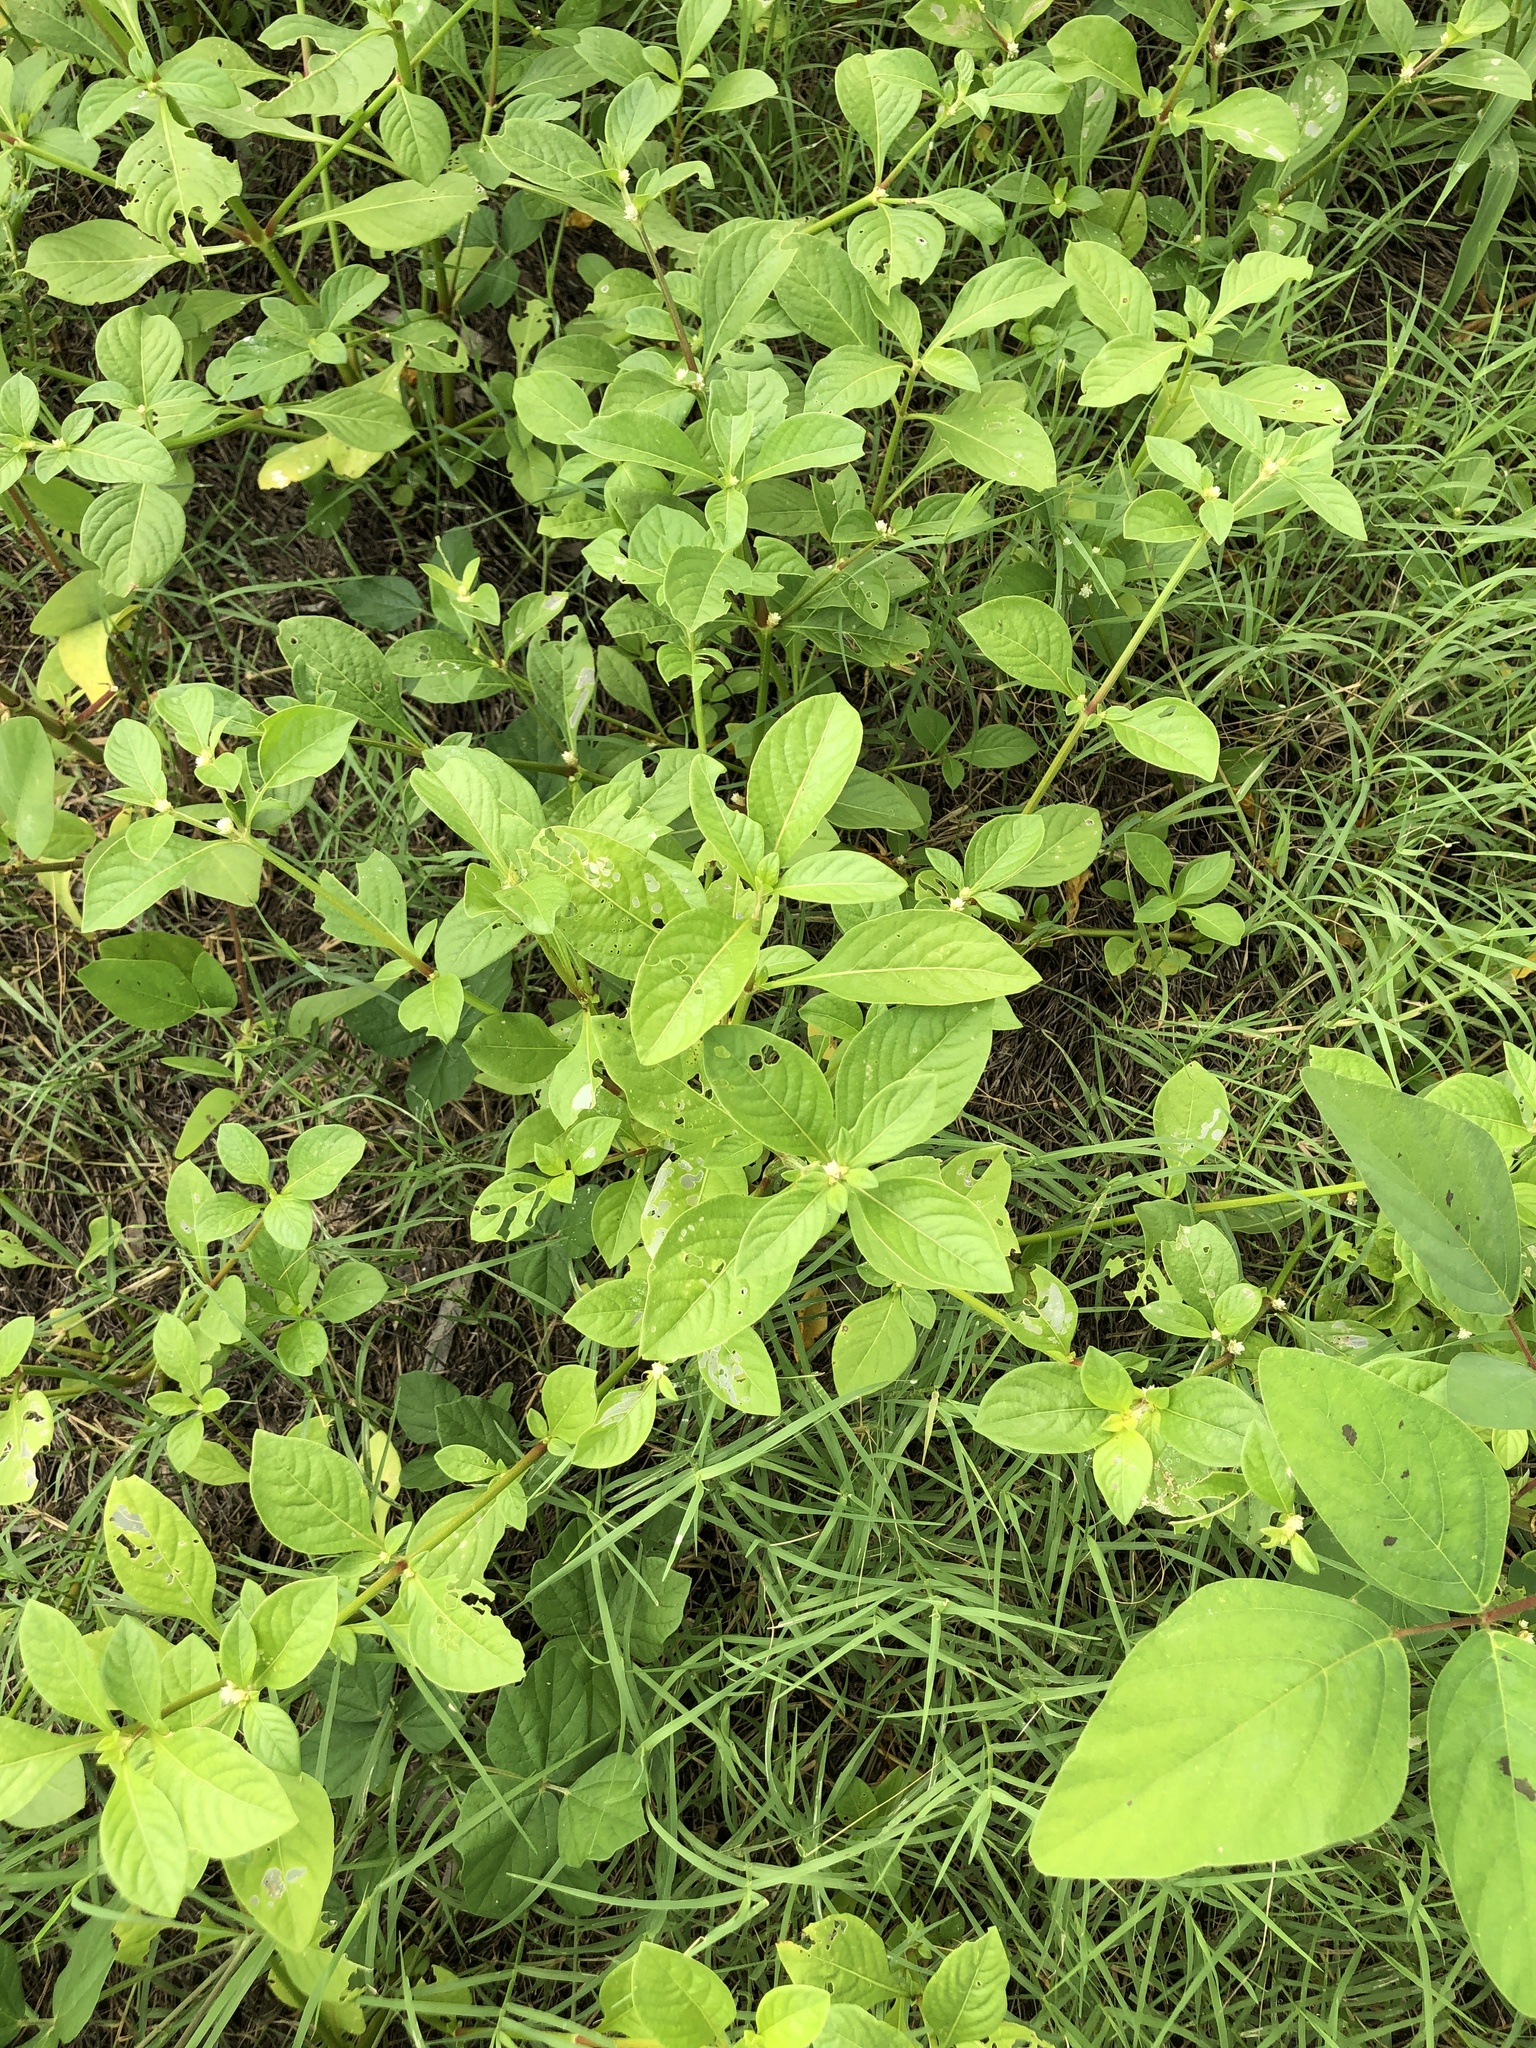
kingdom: Plantae
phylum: Tracheophyta
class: Magnoliopsida
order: Caryophyllales
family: Amaranthaceae
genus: Alternanthera
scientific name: Alternanthera ficoidea
